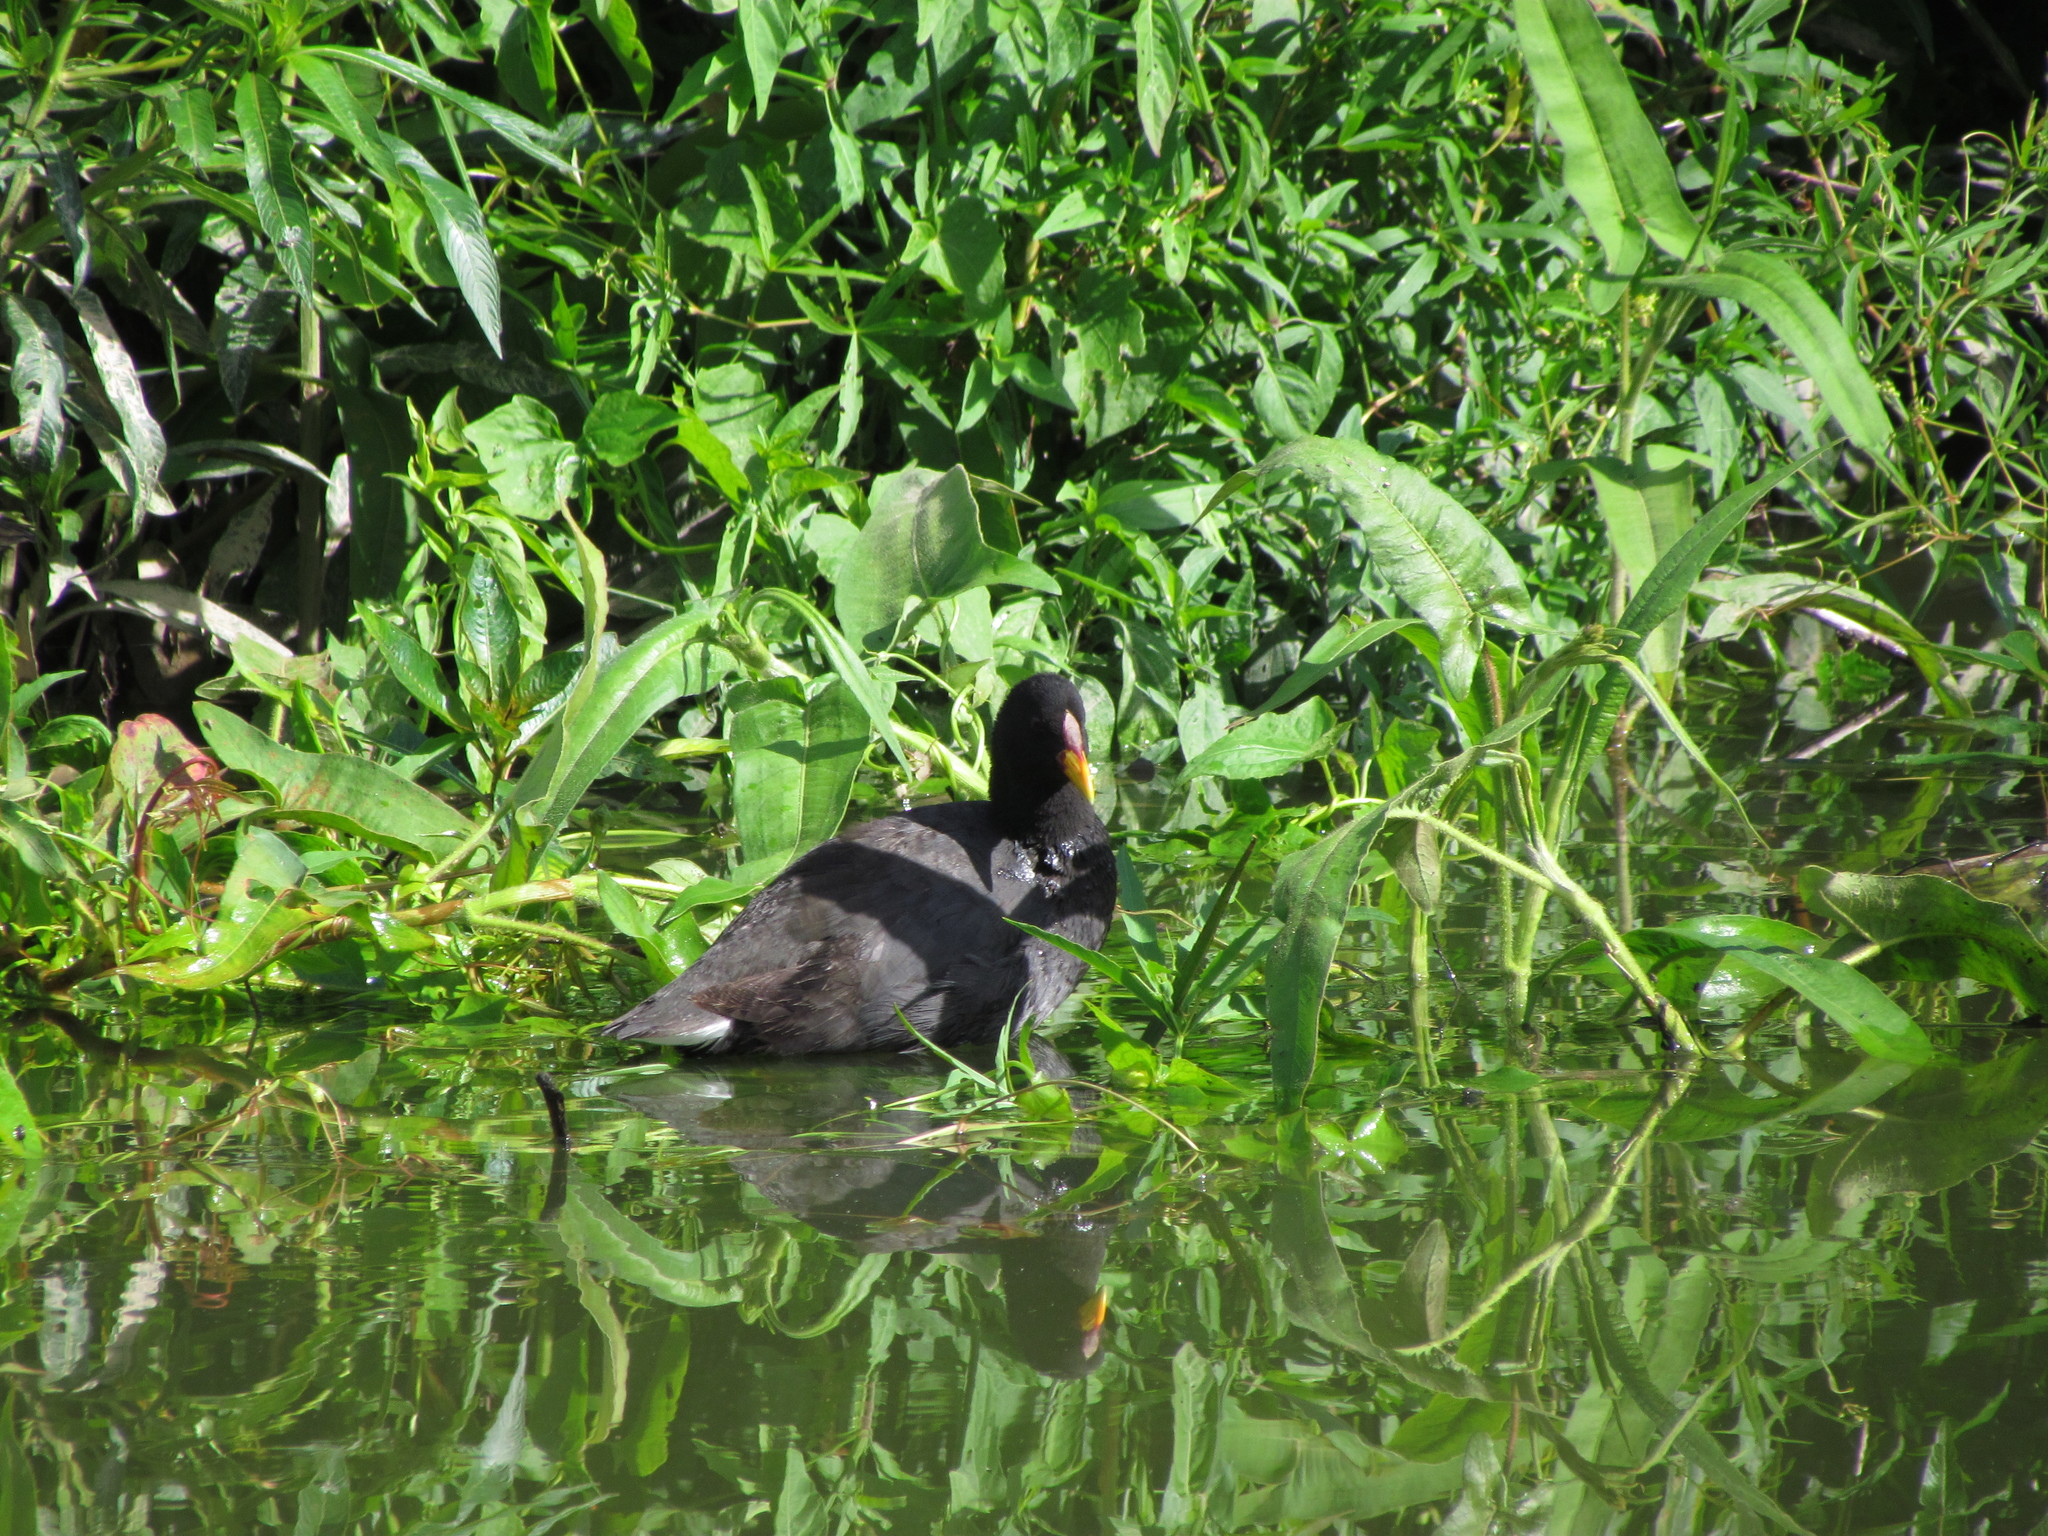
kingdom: Animalia
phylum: Chordata
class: Aves
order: Gruiformes
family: Rallidae
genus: Fulica
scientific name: Fulica rufifrons
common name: Red-fronted coot
